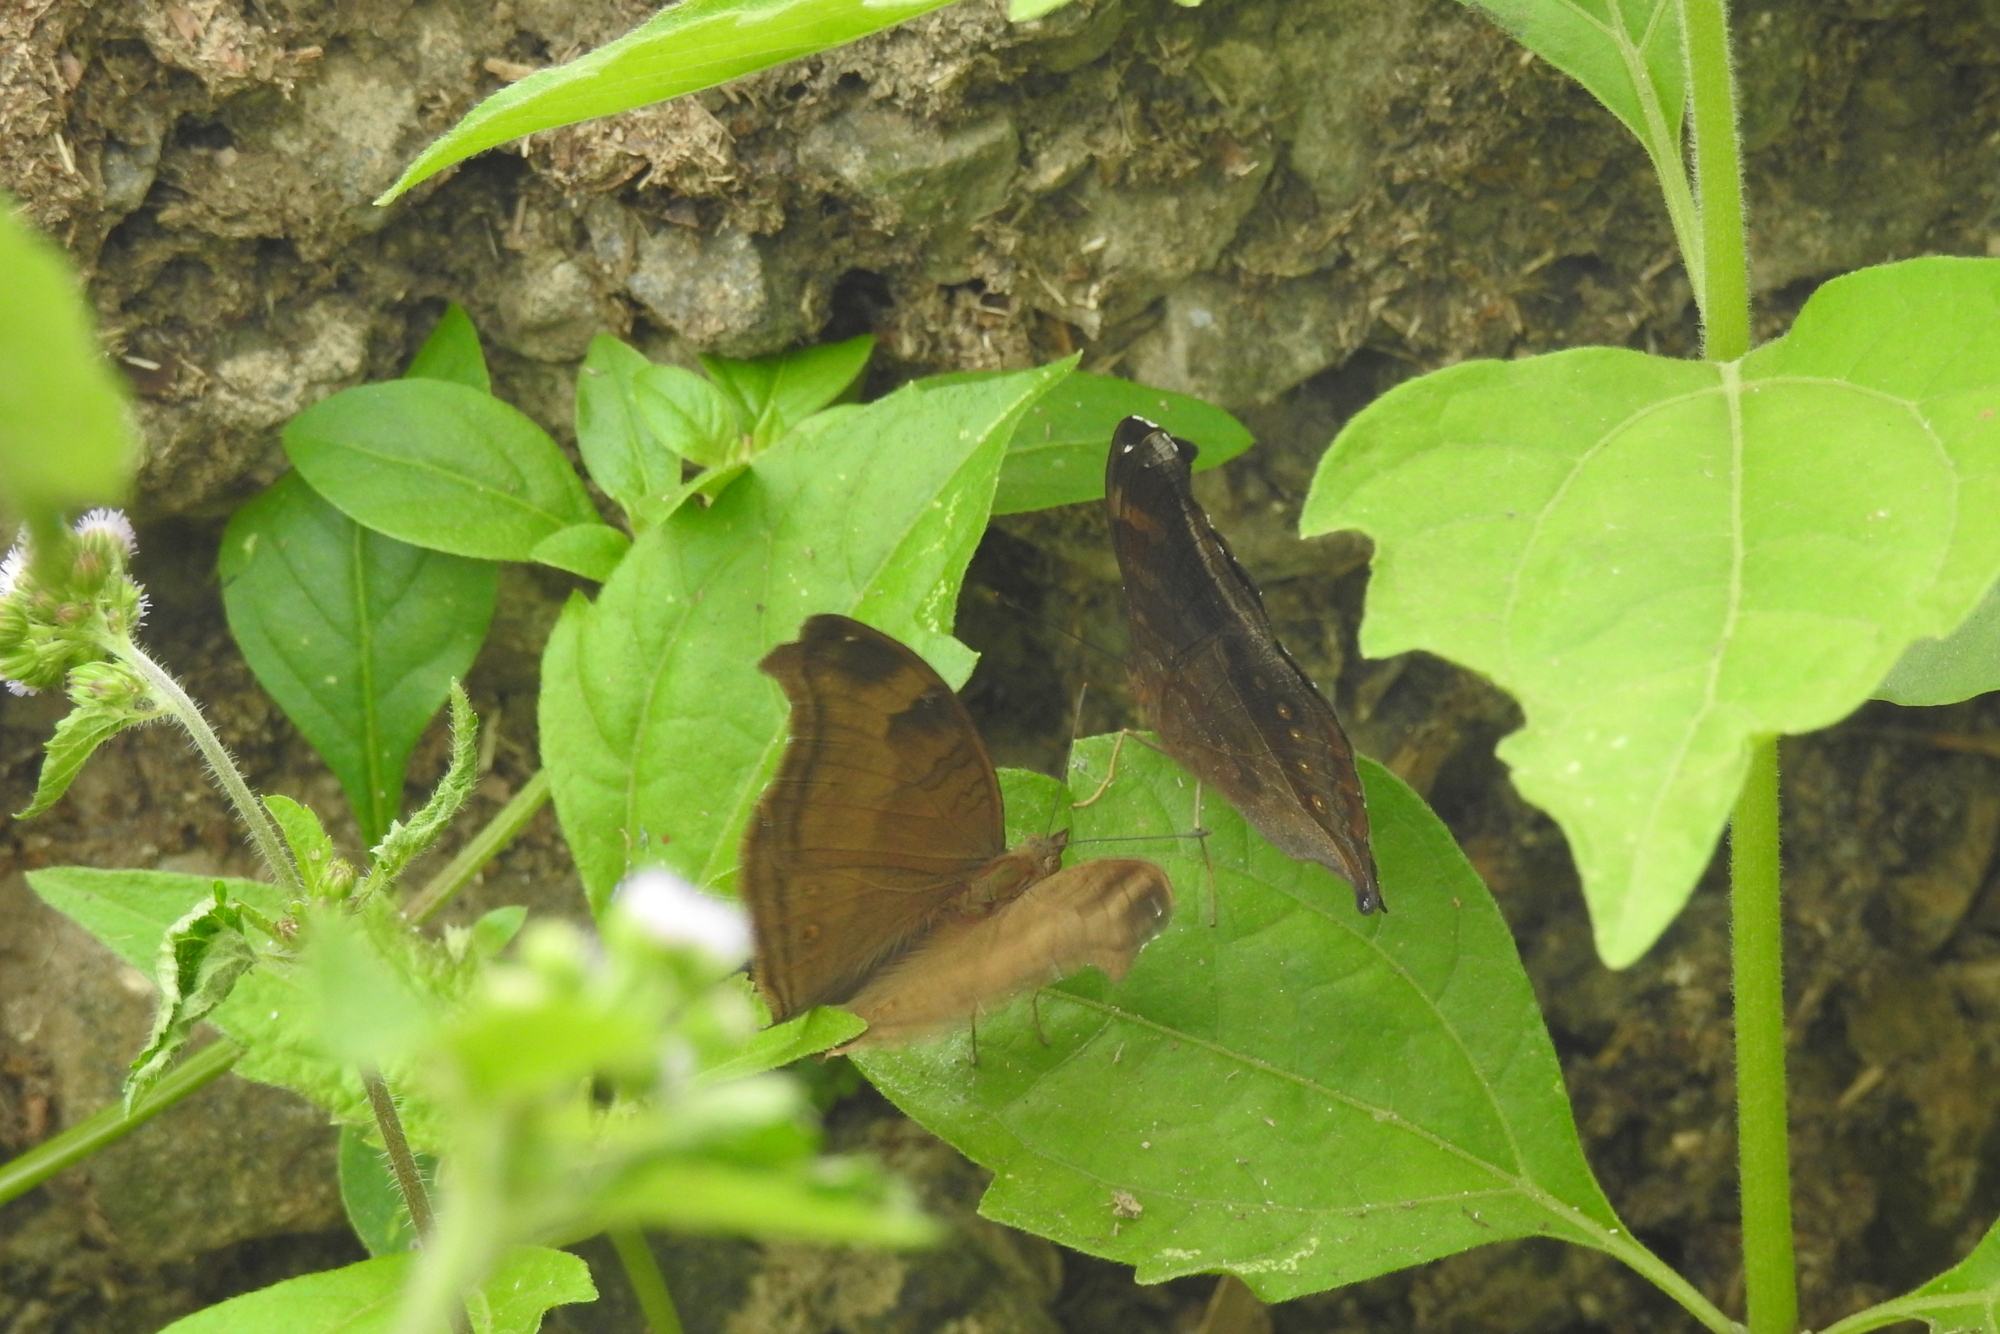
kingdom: Animalia
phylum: Arthropoda
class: Insecta
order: Lepidoptera
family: Nymphalidae
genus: Junonia
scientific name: Junonia iphita
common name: Chocolate pansy
